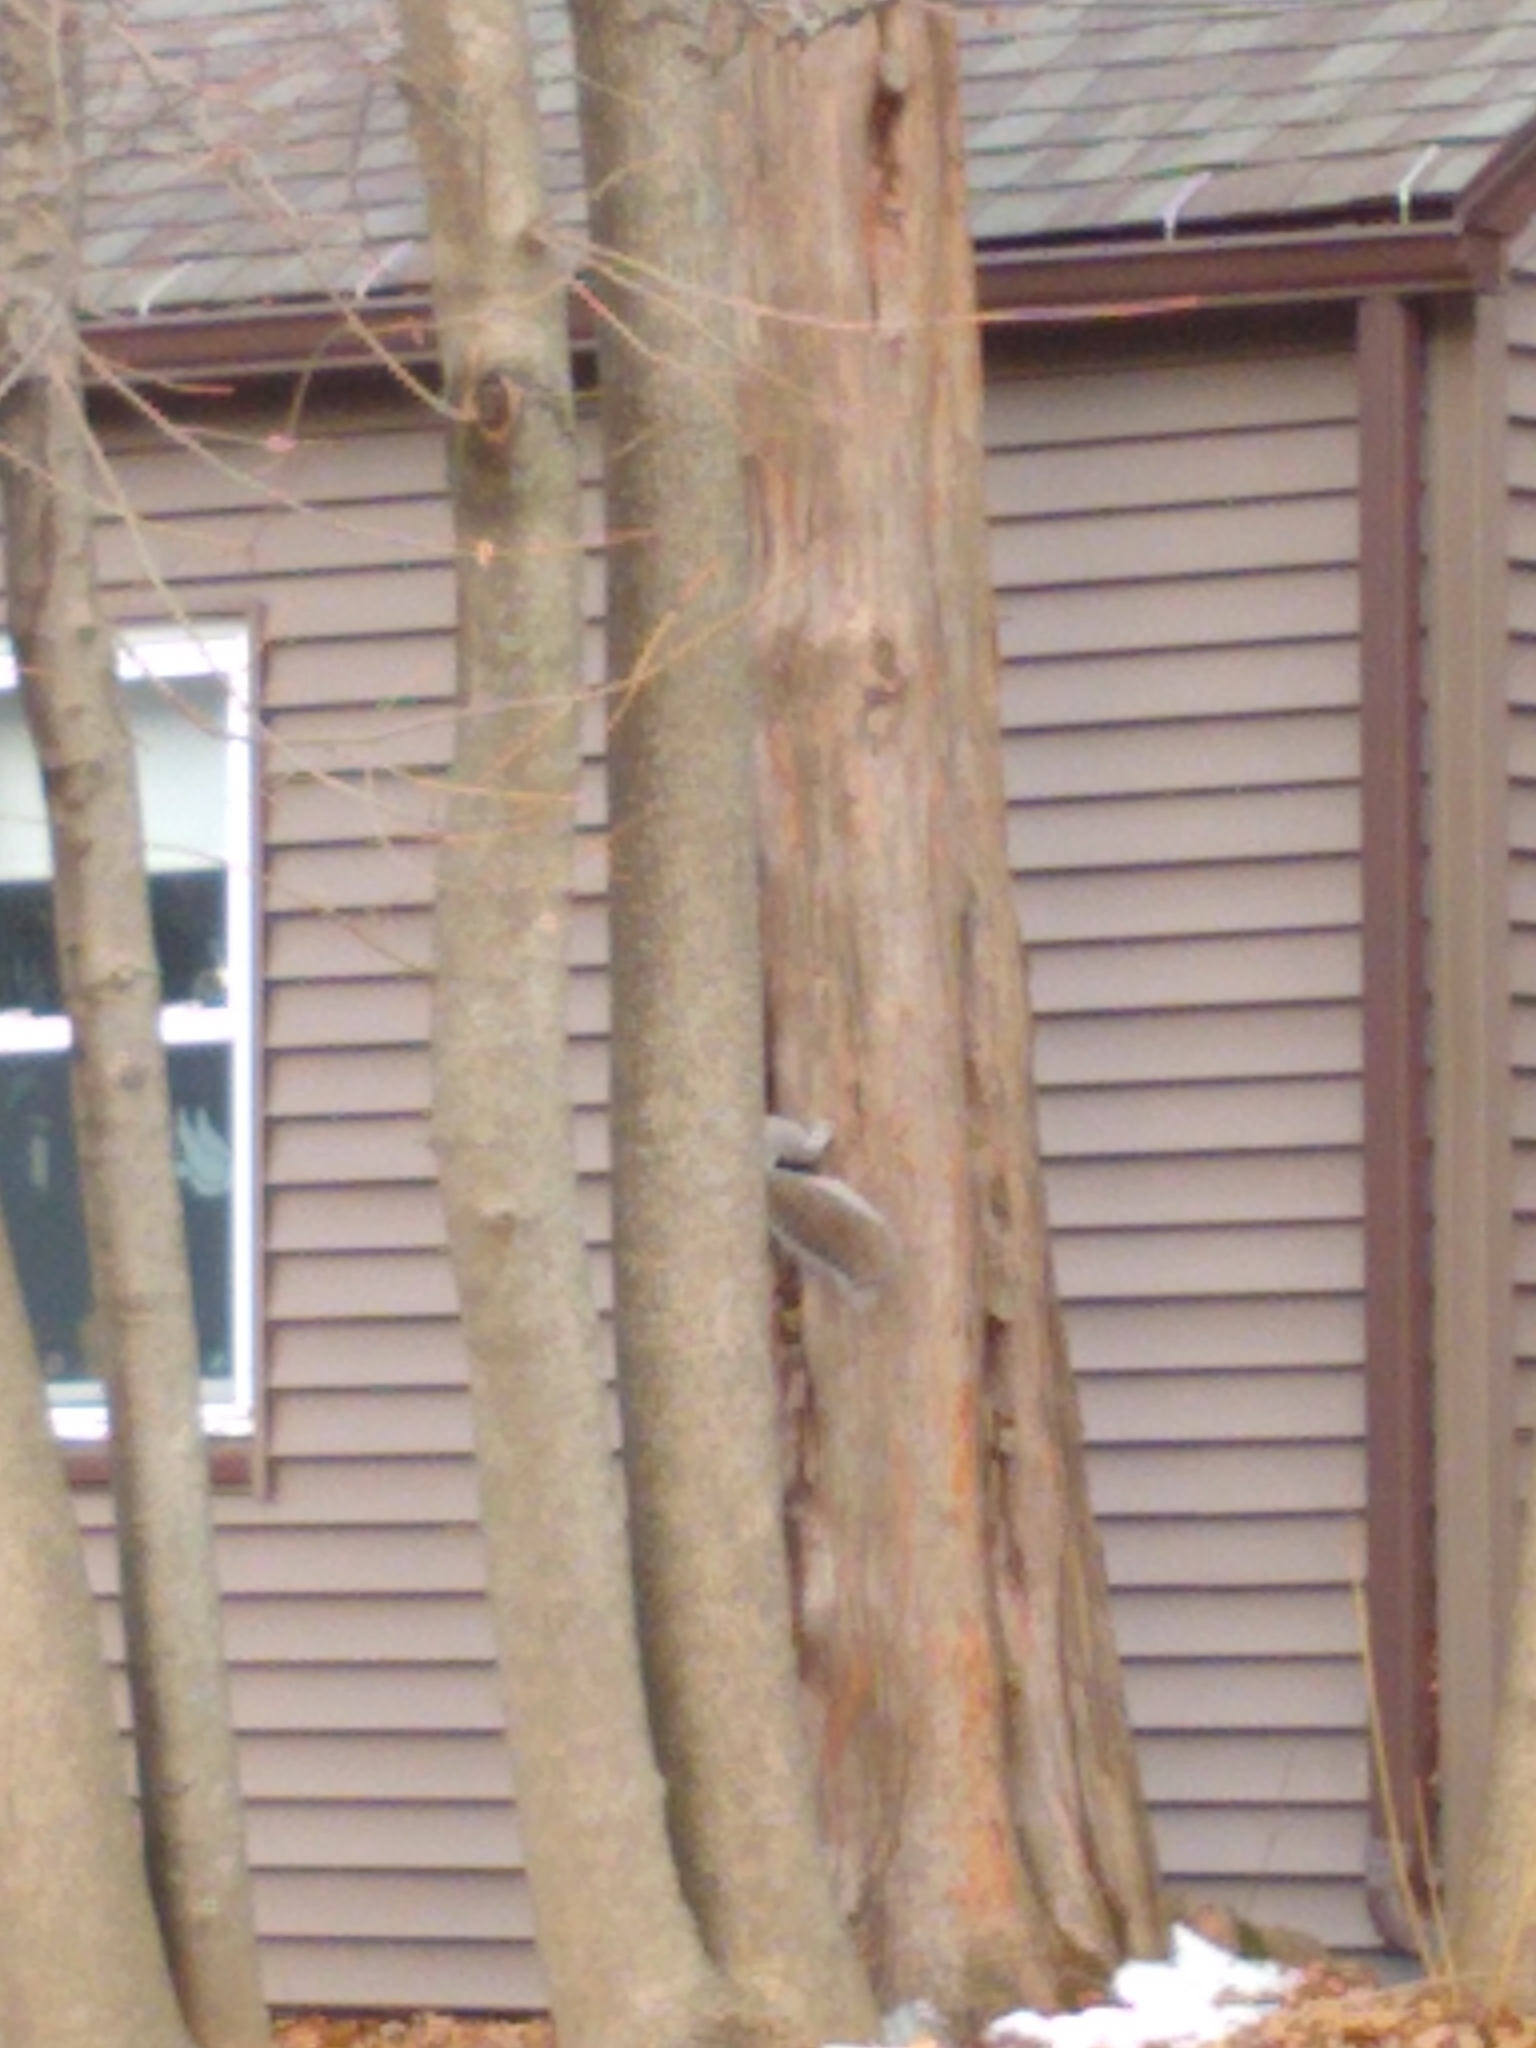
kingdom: Animalia
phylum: Chordata
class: Mammalia
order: Rodentia
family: Sciuridae
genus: Sciurus
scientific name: Sciurus carolinensis
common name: Eastern gray squirrel
